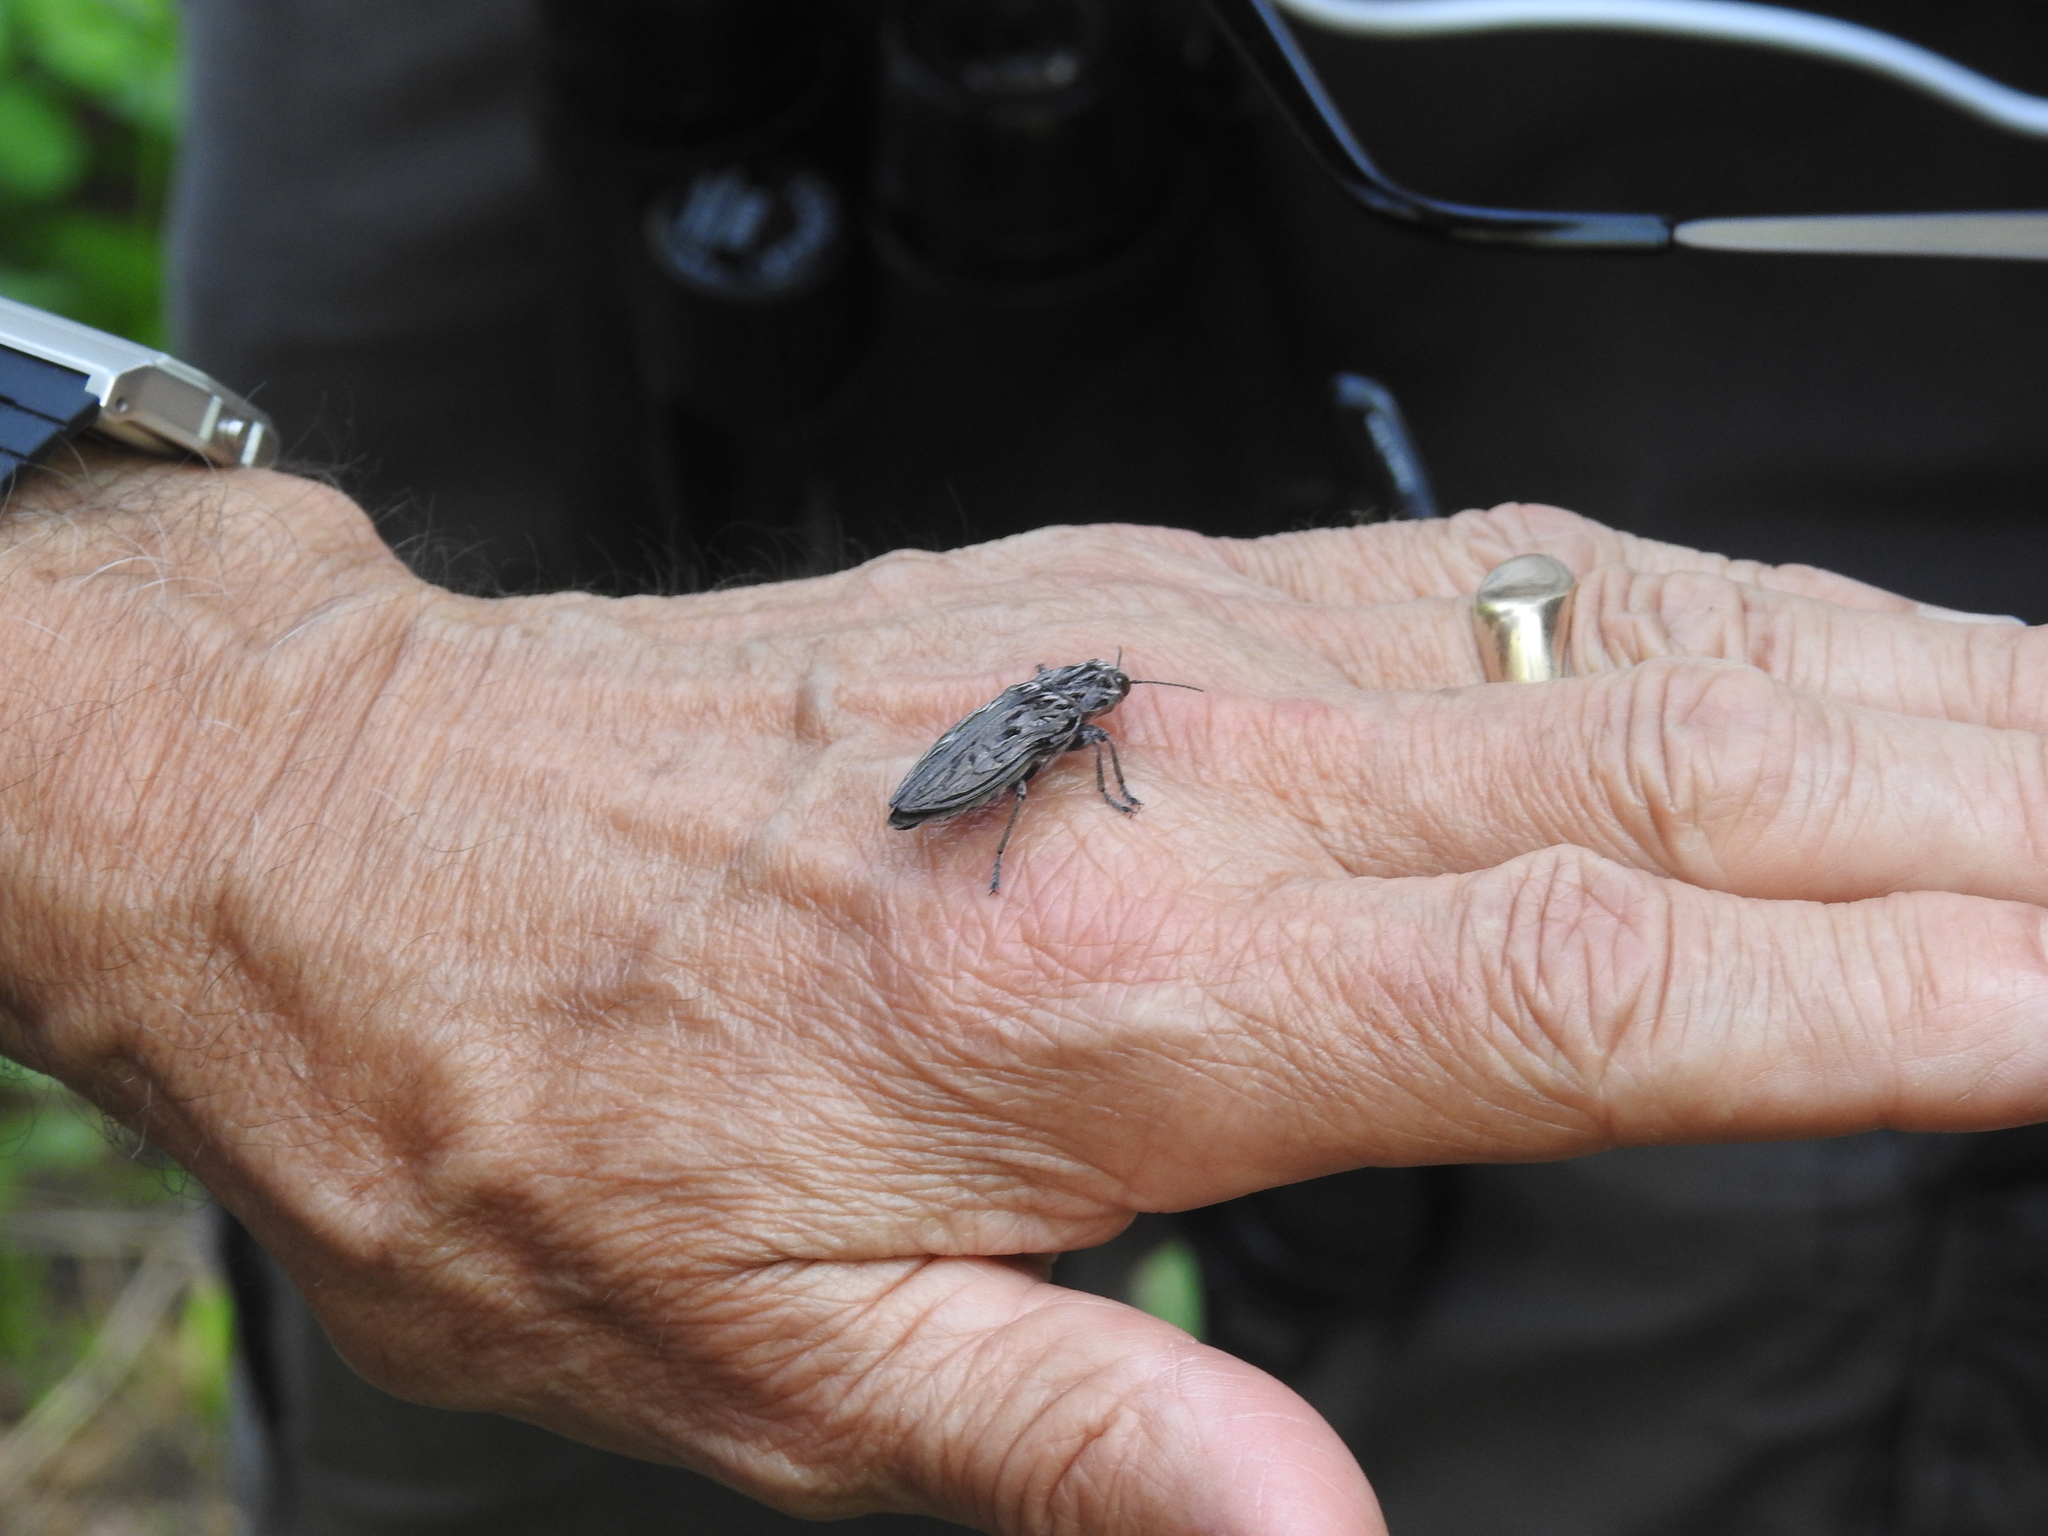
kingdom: Animalia
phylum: Arthropoda
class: Insecta
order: Coleoptera
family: Buprestidae
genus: Chalcophora
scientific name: Chalcophora angulicollis
